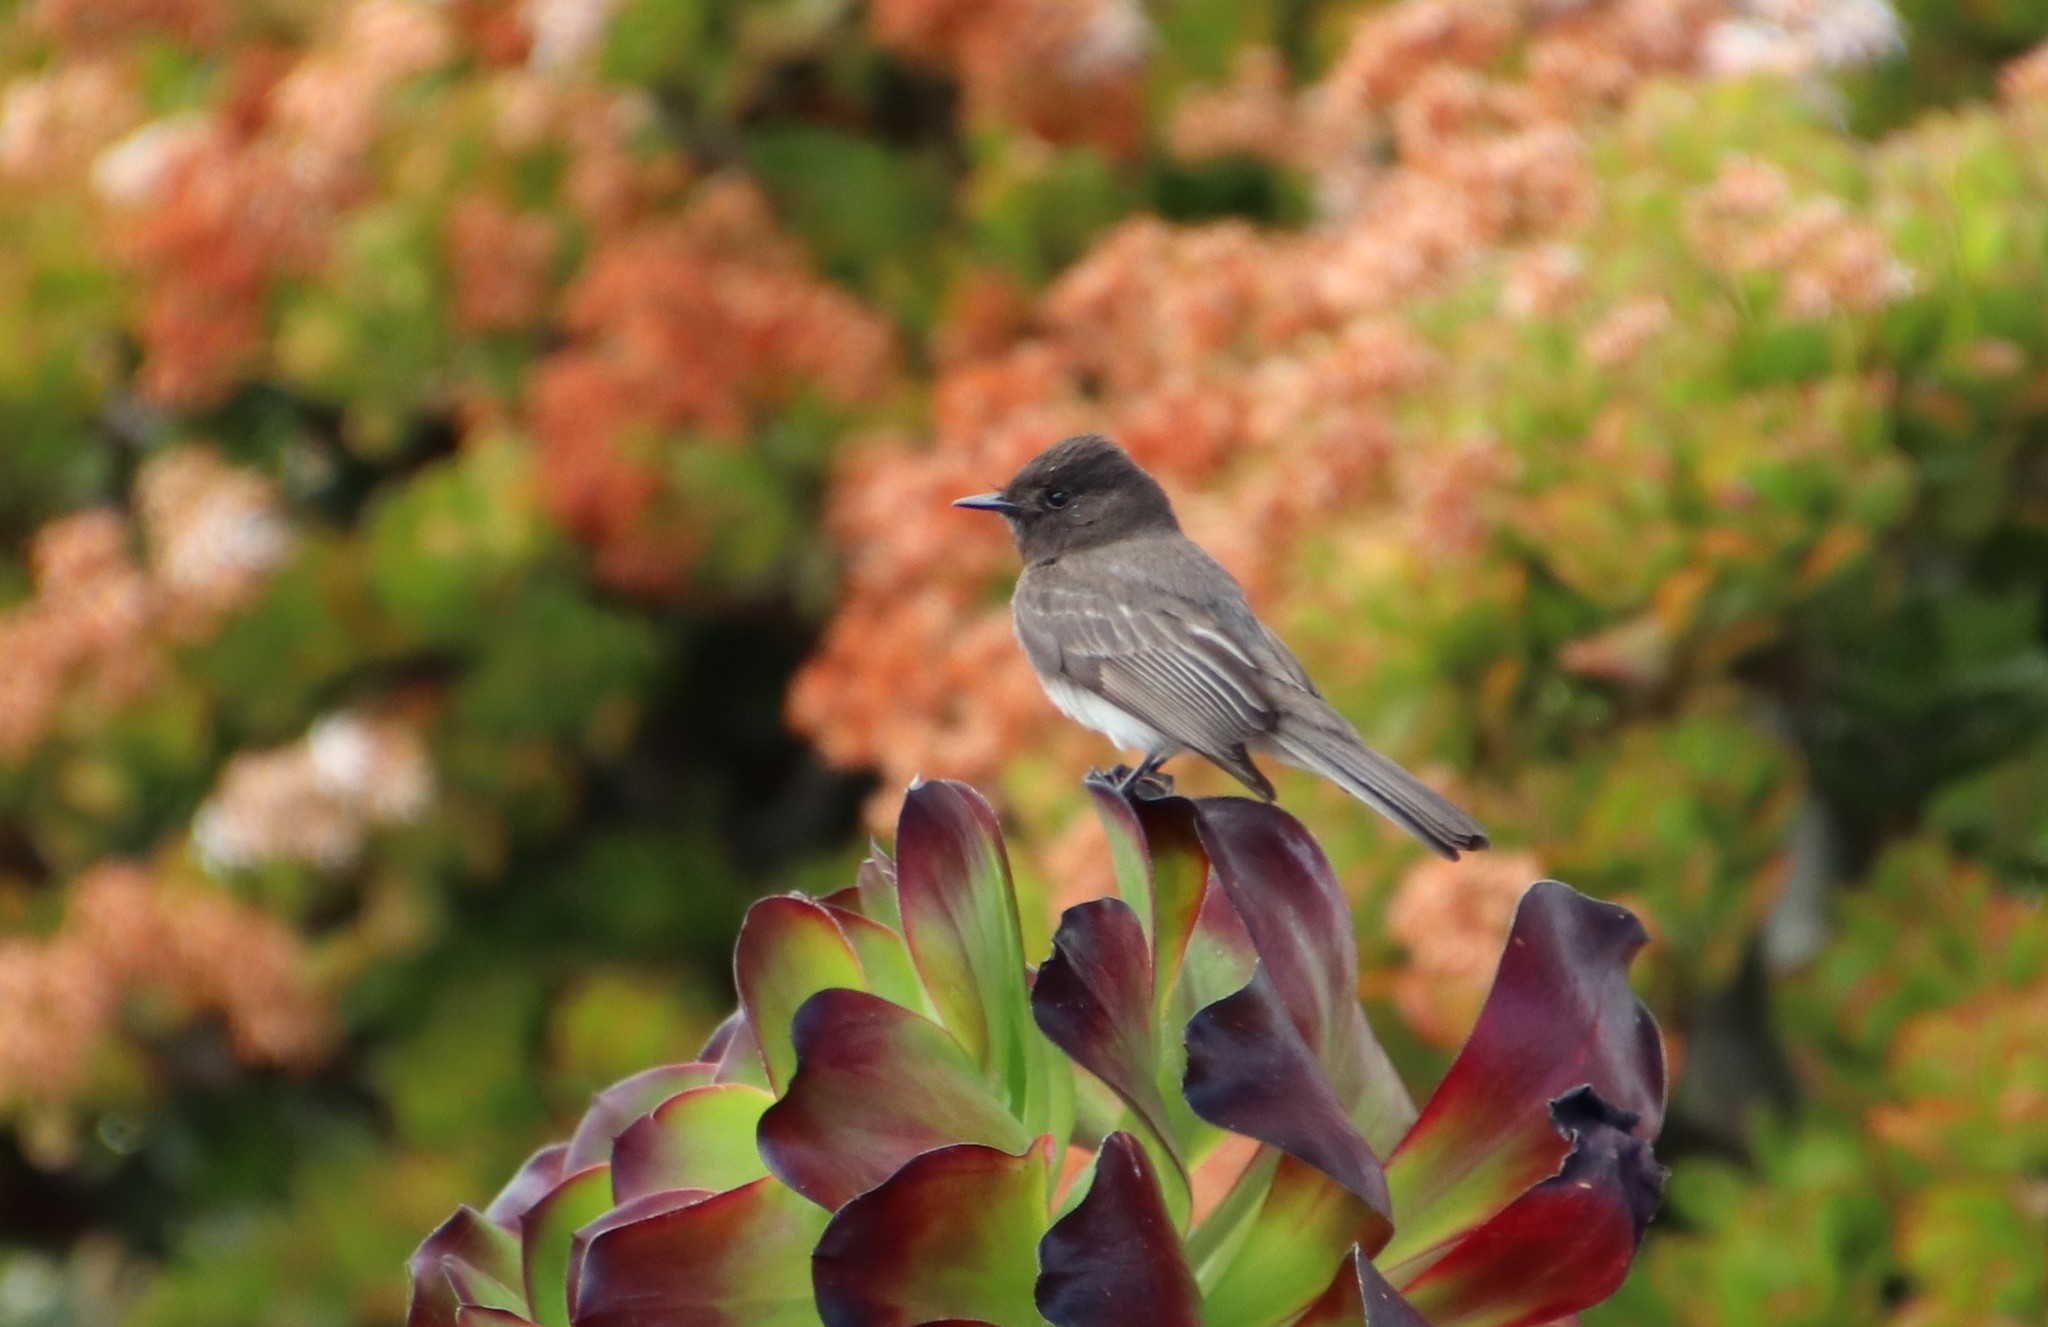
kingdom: Animalia
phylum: Chordata
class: Aves
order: Passeriformes
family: Tyrannidae
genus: Sayornis
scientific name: Sayornis nigricans
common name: Black phoebe
